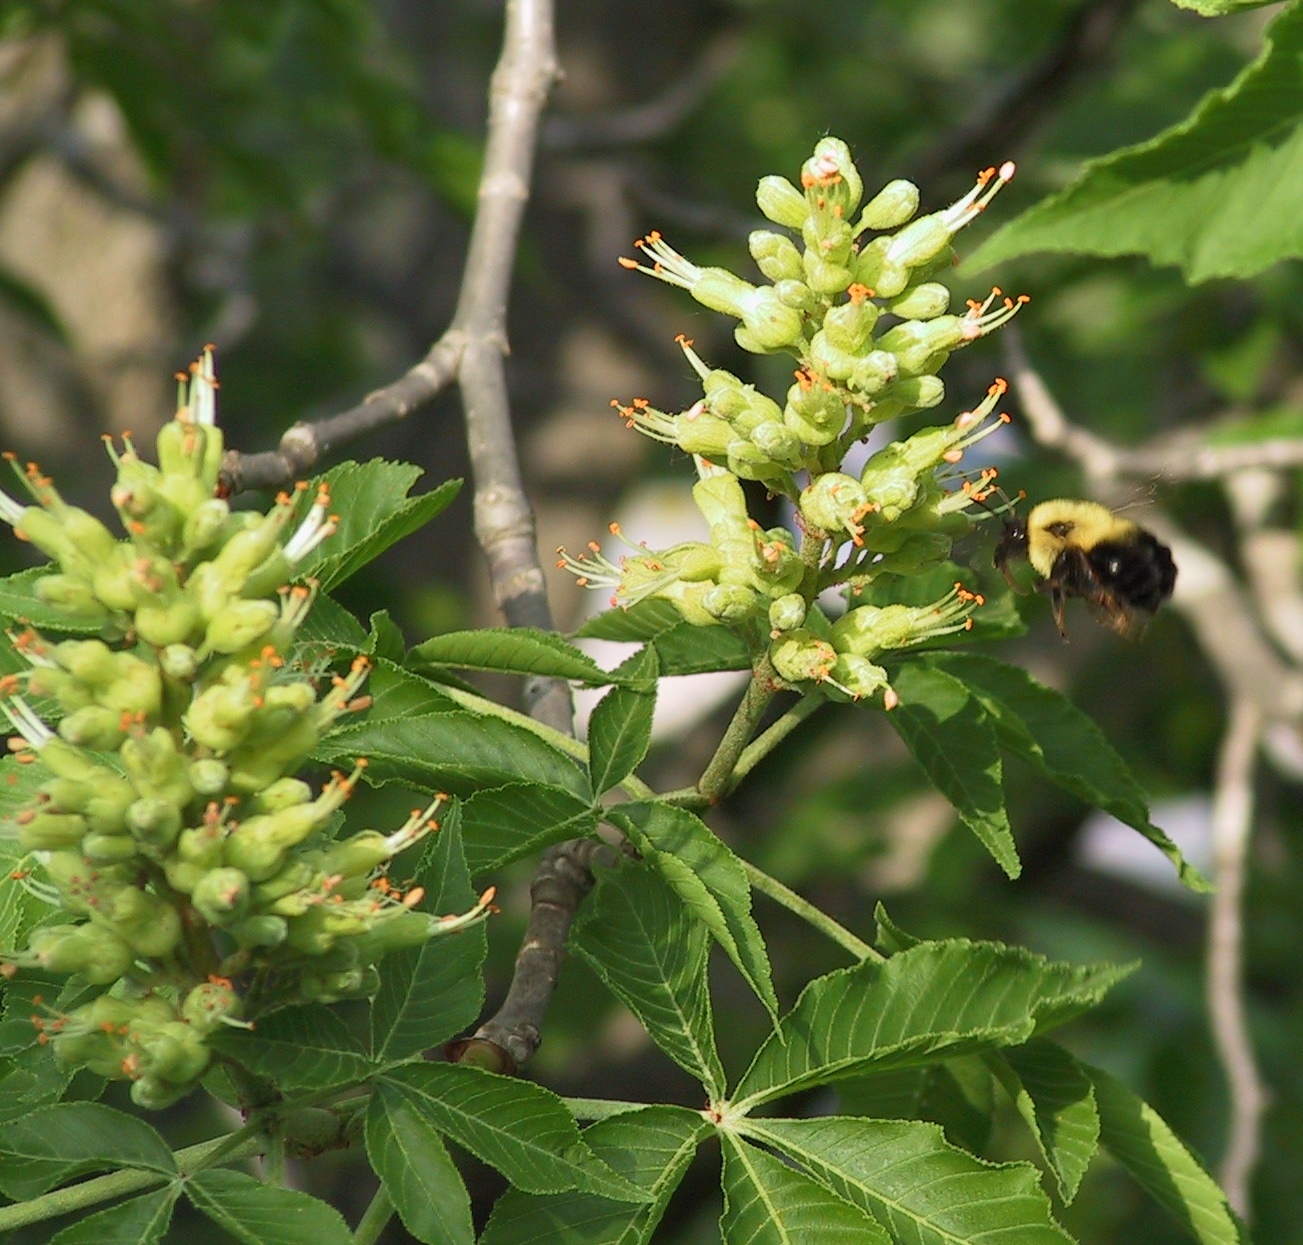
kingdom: Plantae
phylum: Tracheophyta
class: Magnoliopsida
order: Sapindales
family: Sapindaceae
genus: Aesculus
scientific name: Aesculus glabra
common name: Ohio buckeye
